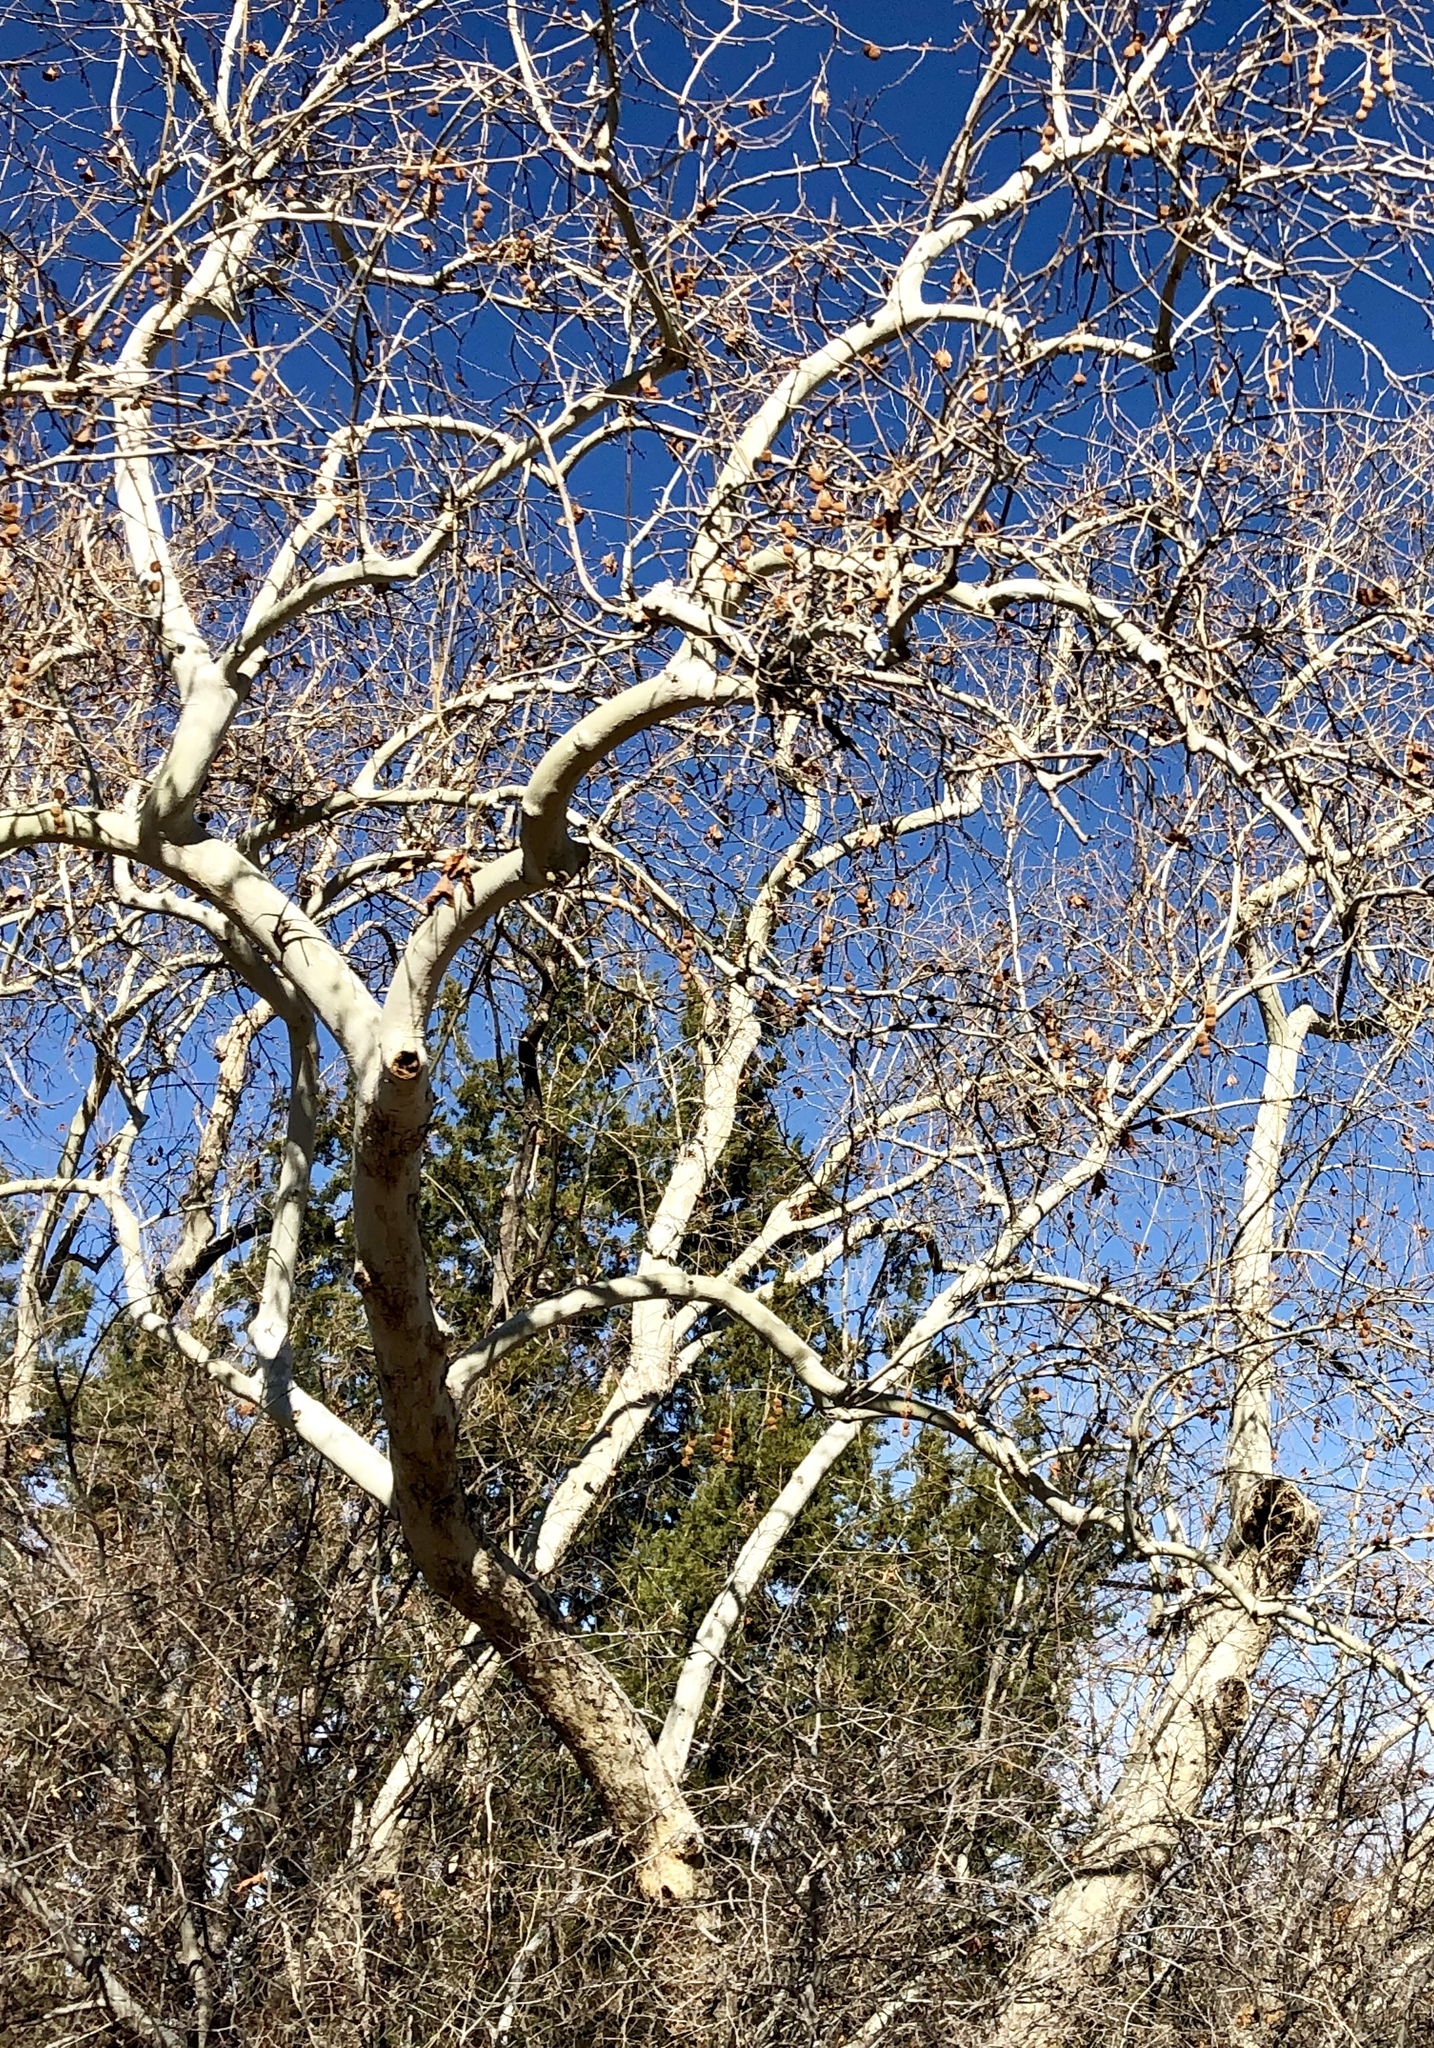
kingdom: Plantae
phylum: Tracheophyta
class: Magnoliopsida
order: Proteales
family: Platanaceae
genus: Platanus
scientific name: Platanus wrightii
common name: Arizona sycamore
